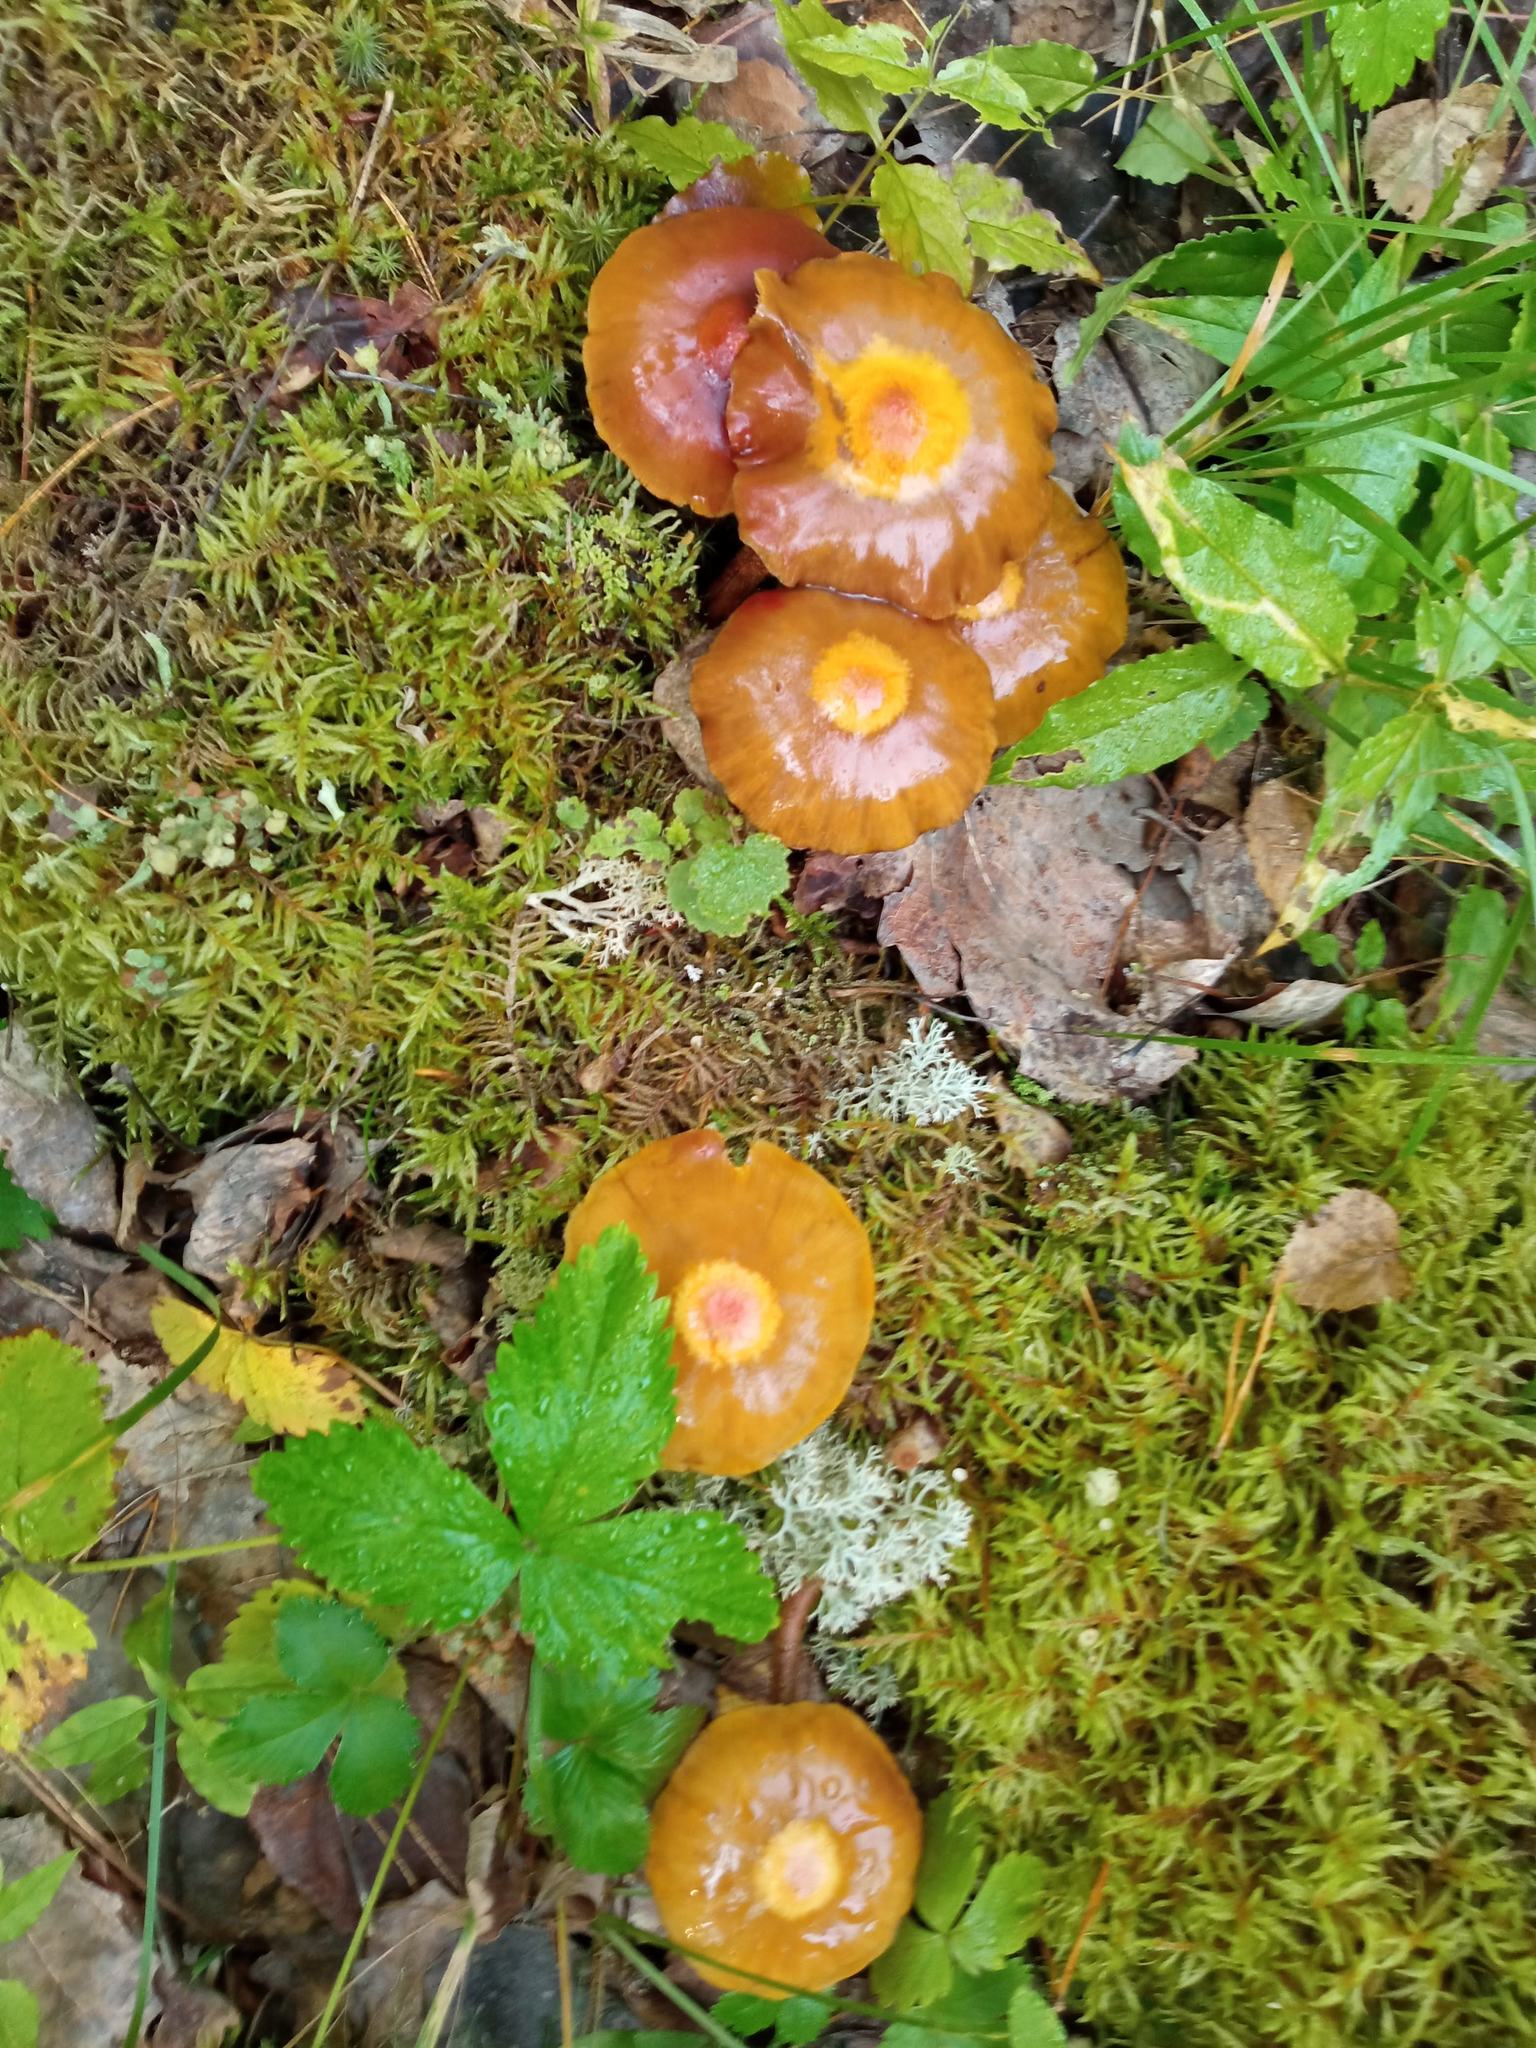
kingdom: Fungi
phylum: Basidiomycota
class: Agaricomycetes
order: Agaricales
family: Strophariaceae
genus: Kuehneromyces
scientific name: Kuehneromyces mutabilis
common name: Sheathed woodtuft
